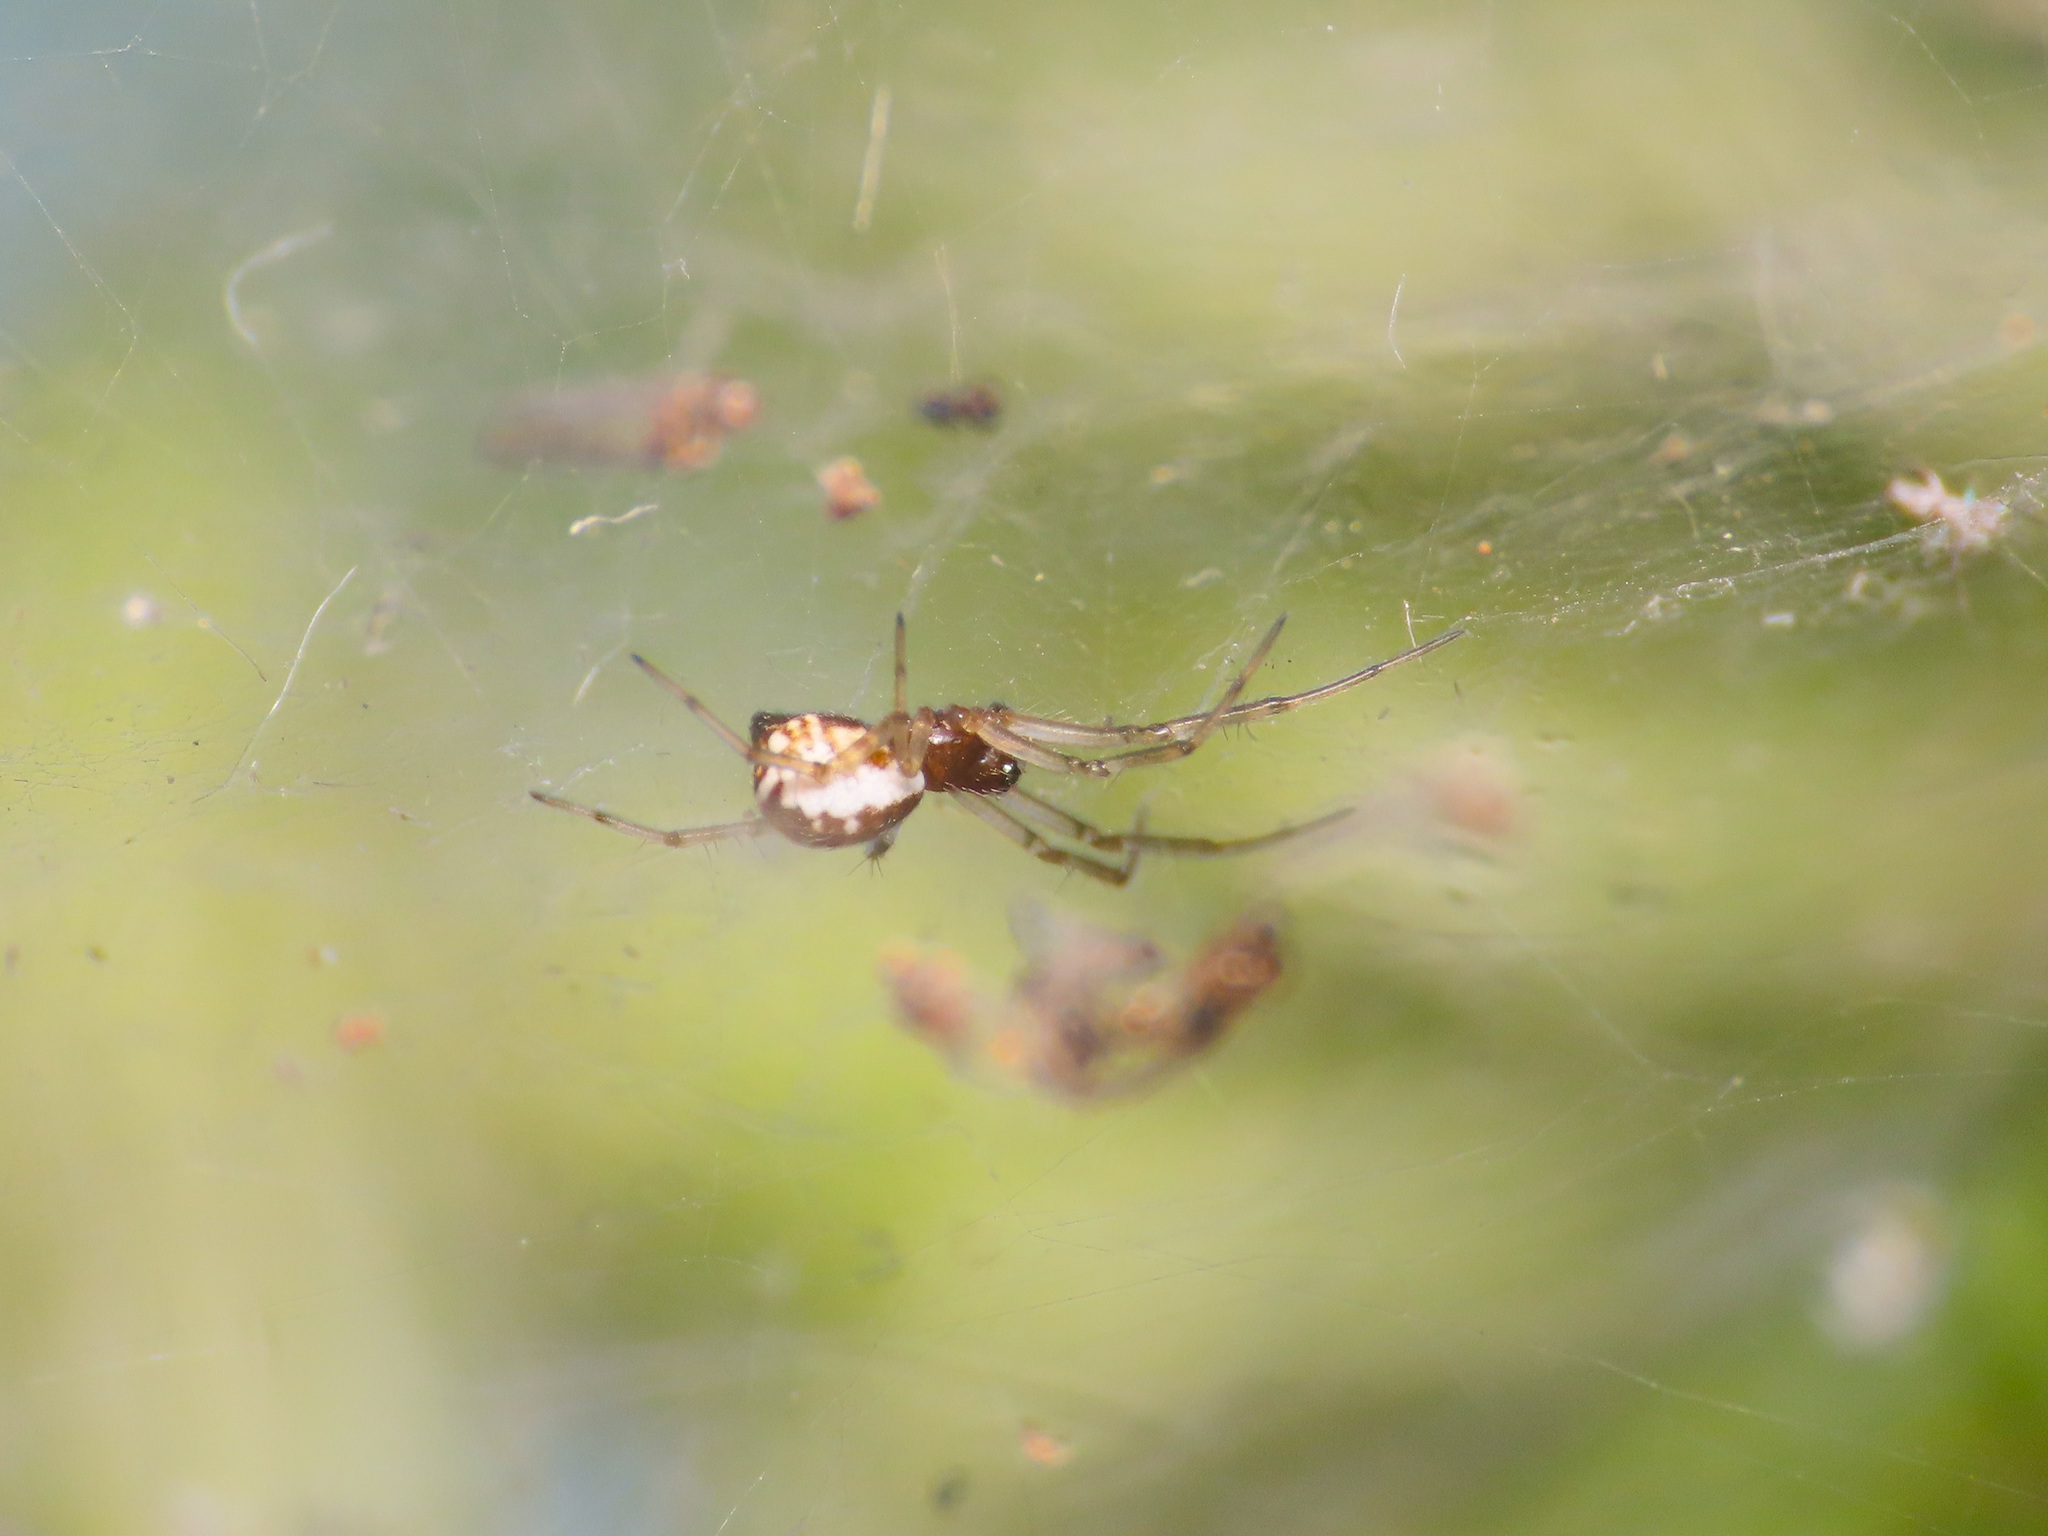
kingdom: Animalia
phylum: Arthropoda
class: Arachnida
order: Araneae
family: Linyphiidae
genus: Frontinellina
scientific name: Frontinellina frutetorum
